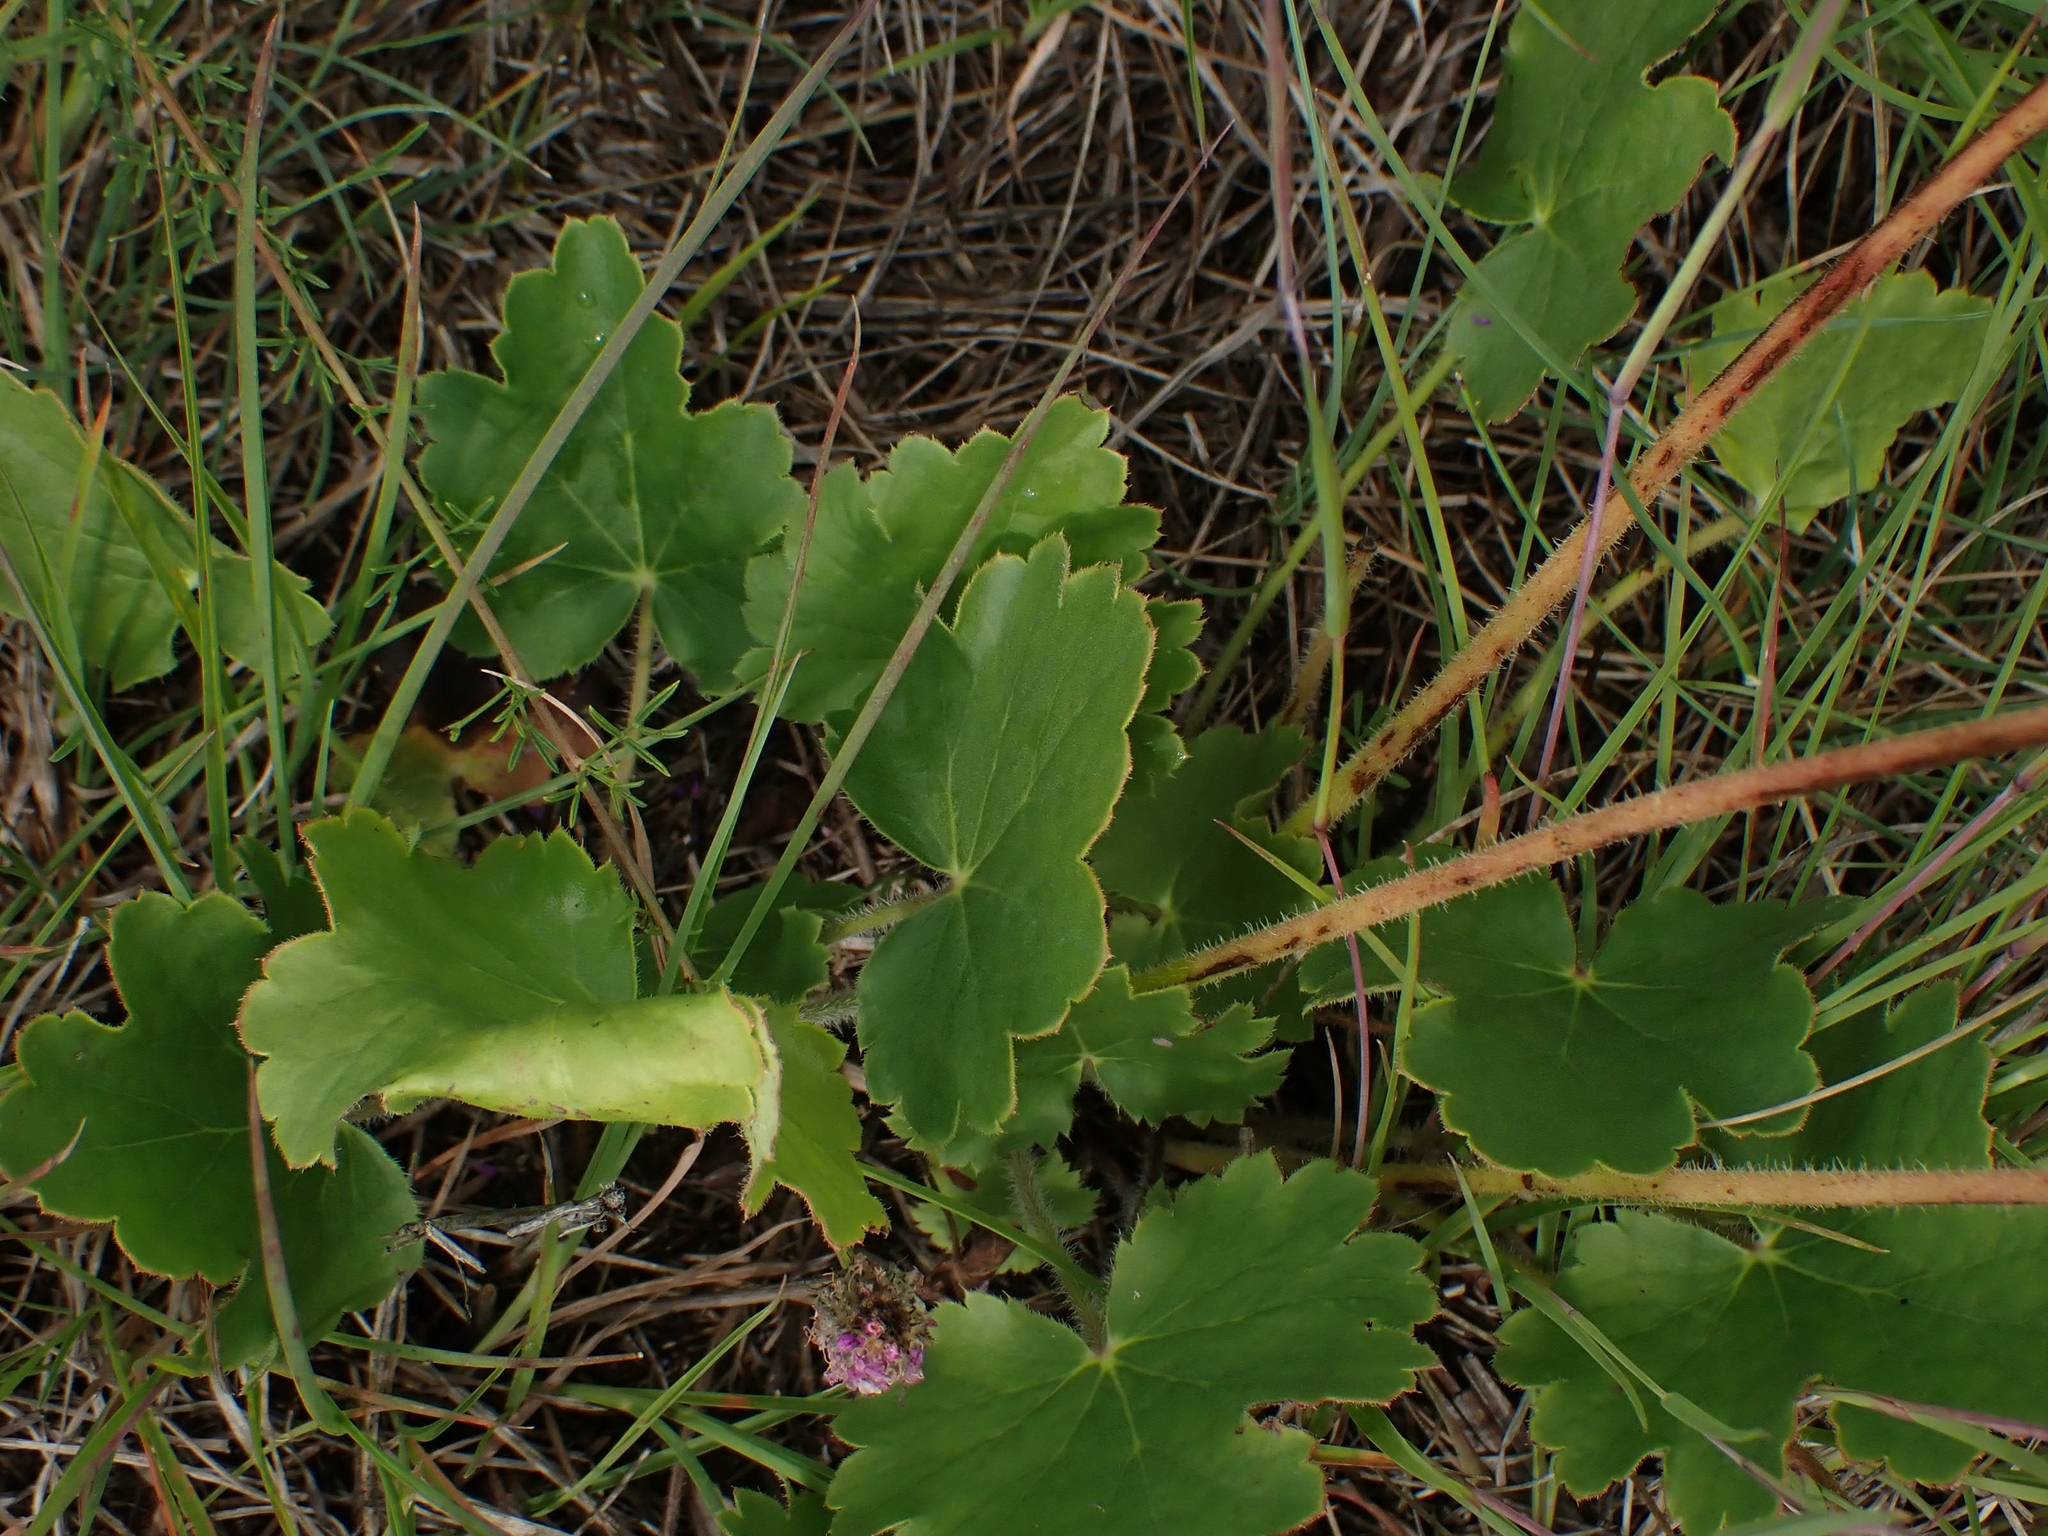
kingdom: Plantae
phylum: Tracheophyta
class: Magnoliopsida
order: Saxifragales
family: Saxifragaceae
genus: Heuchera
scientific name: Heuchera richardsonii
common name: Richardson's alumroot
